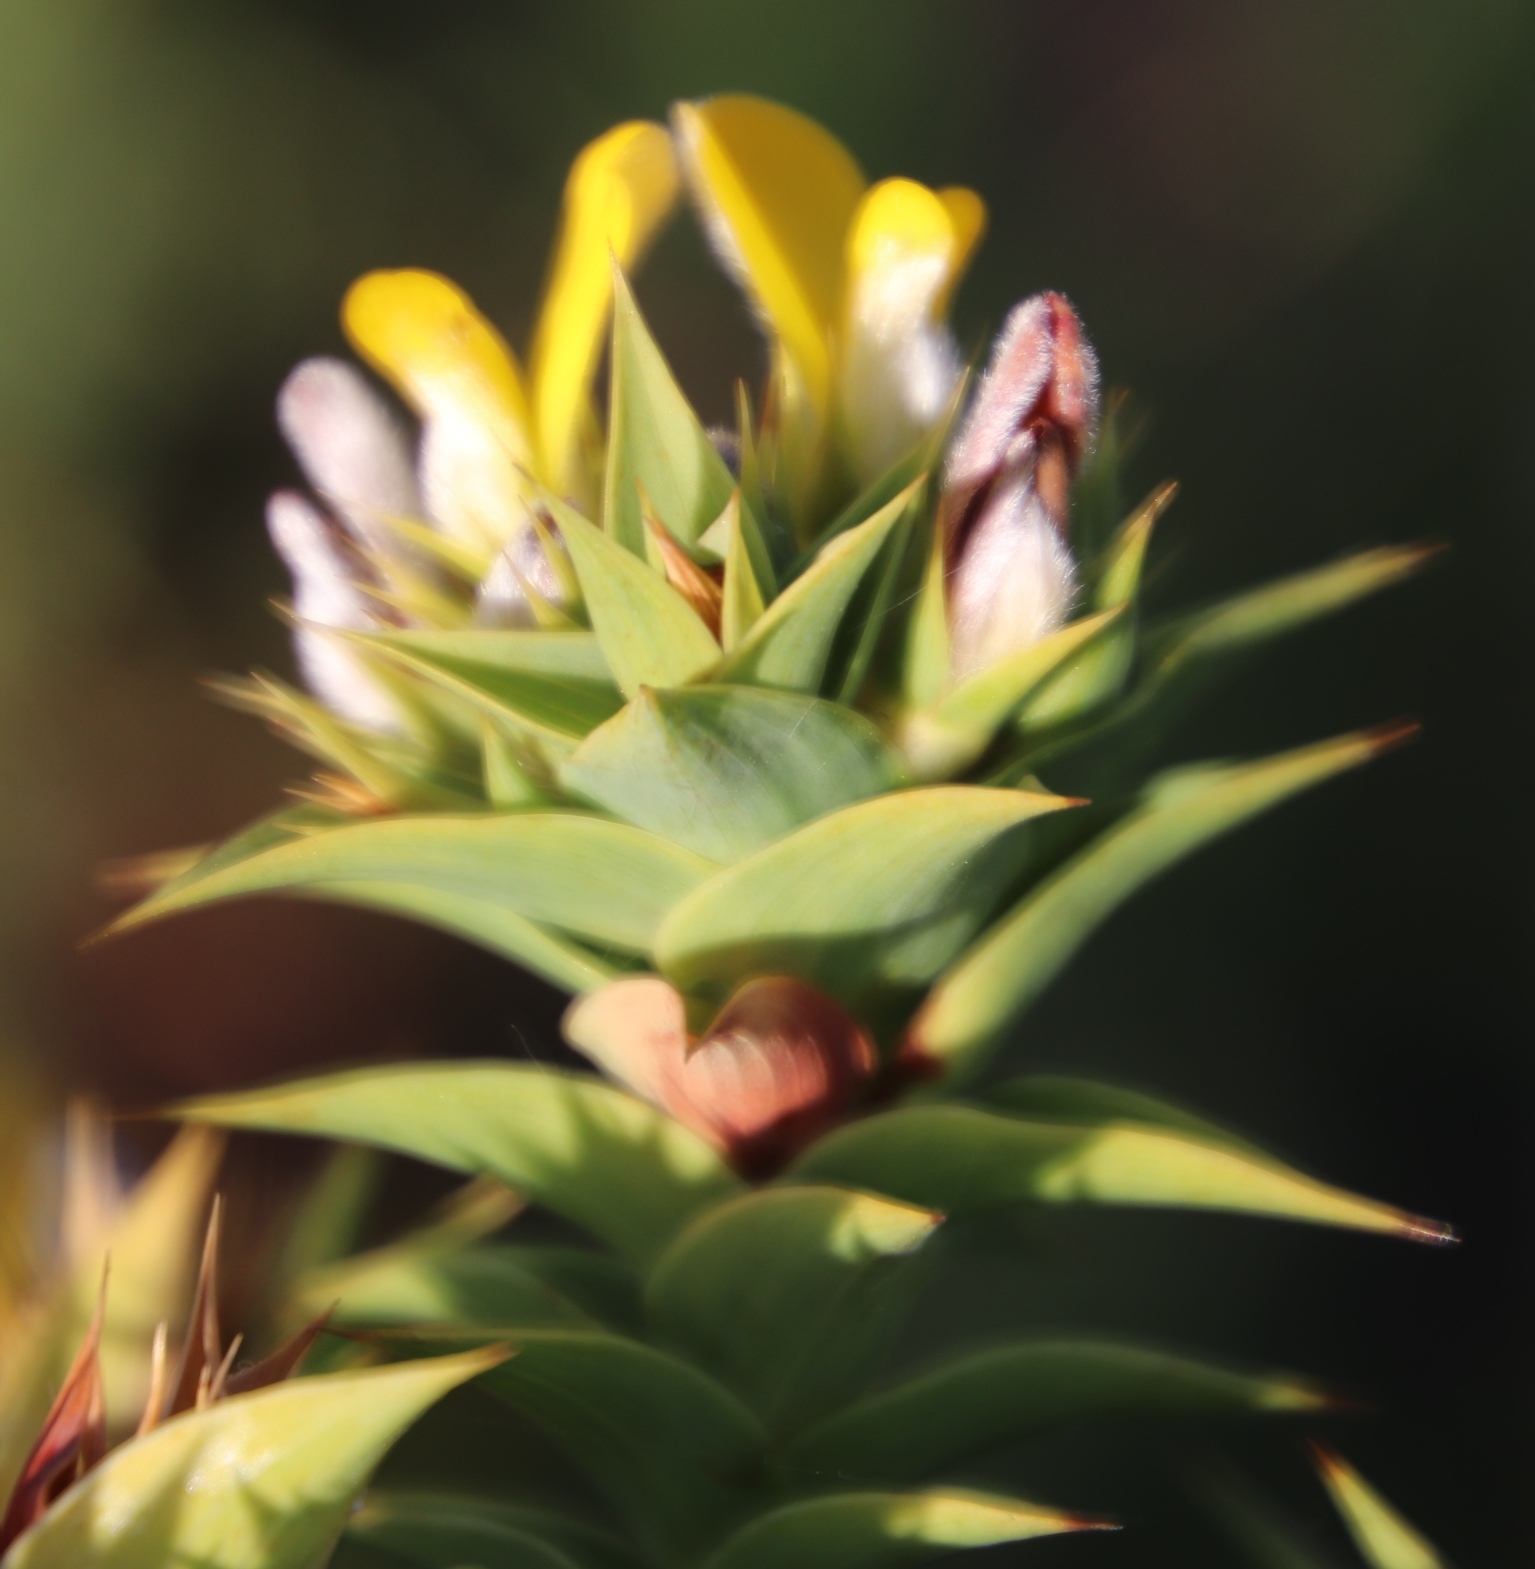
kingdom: Plantae
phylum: Tracheophyta
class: Magnoliopsida
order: Fabales
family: Fabaceae
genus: Aspalathus
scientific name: Aspalathus cordata
